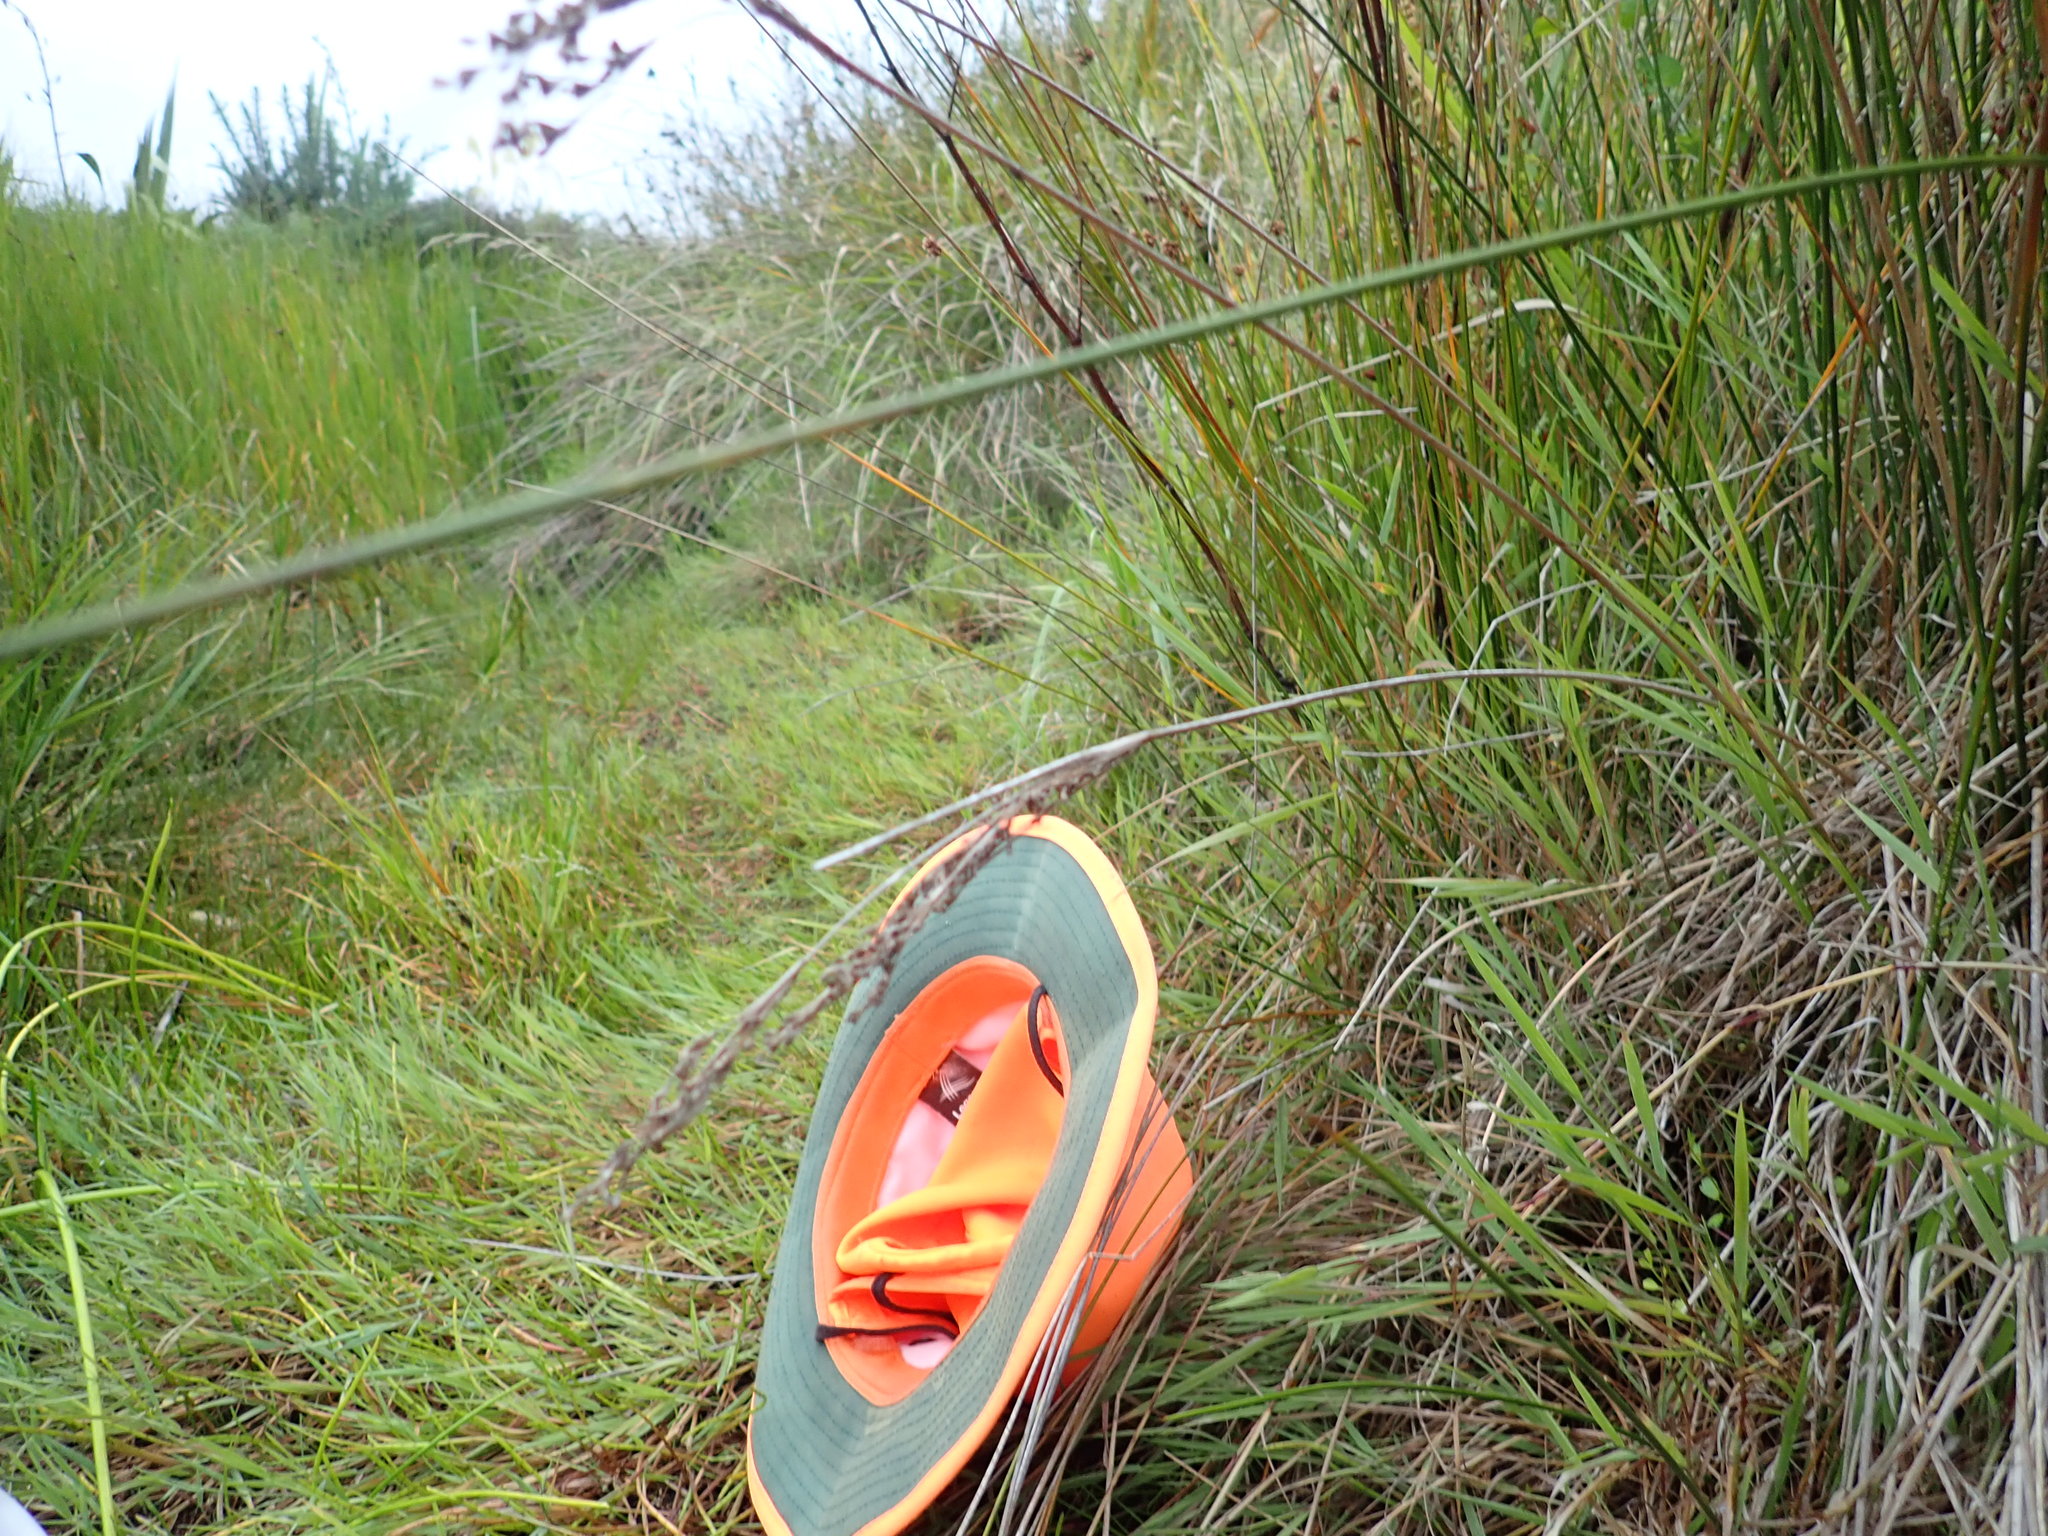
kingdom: Plantae
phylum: Tracheophyta
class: Magnoliopsida
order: Apiales
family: Apiaceae
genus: Apium
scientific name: Apium prostratum
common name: Prostrate marshwort
